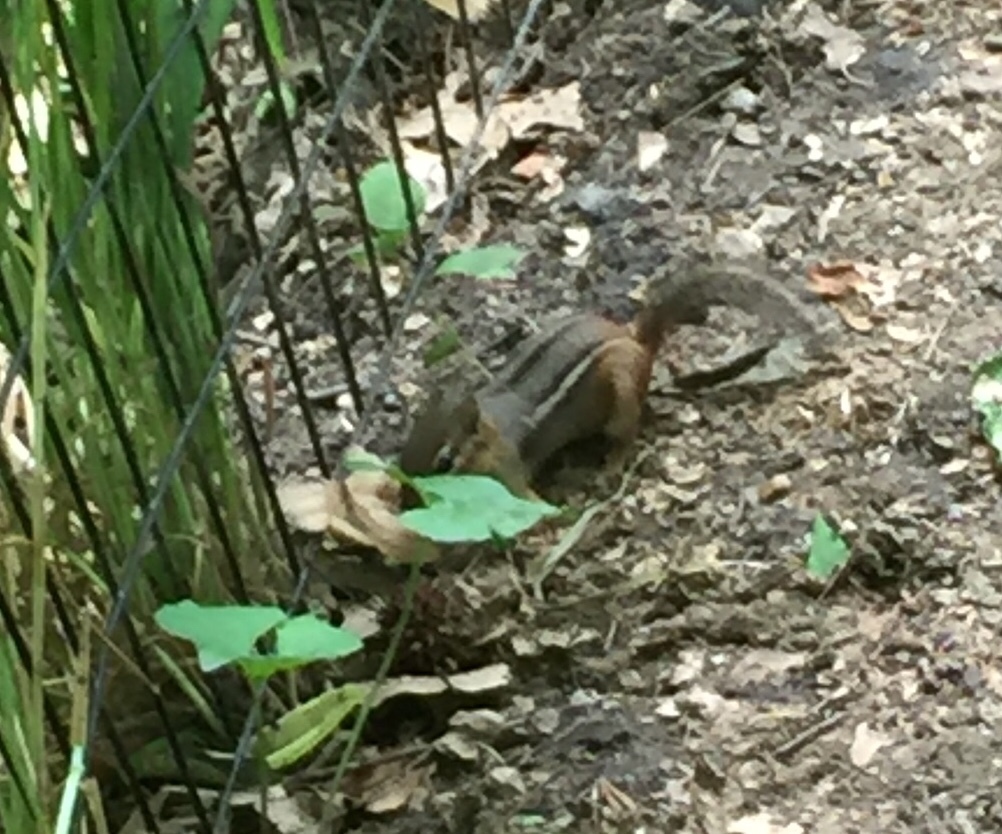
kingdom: Animalia
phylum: Chordata
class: Mammalia
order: Rodentia
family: Sciuridae
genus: Tamias
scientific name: Tamias striatus
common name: Eastern chipmunk
